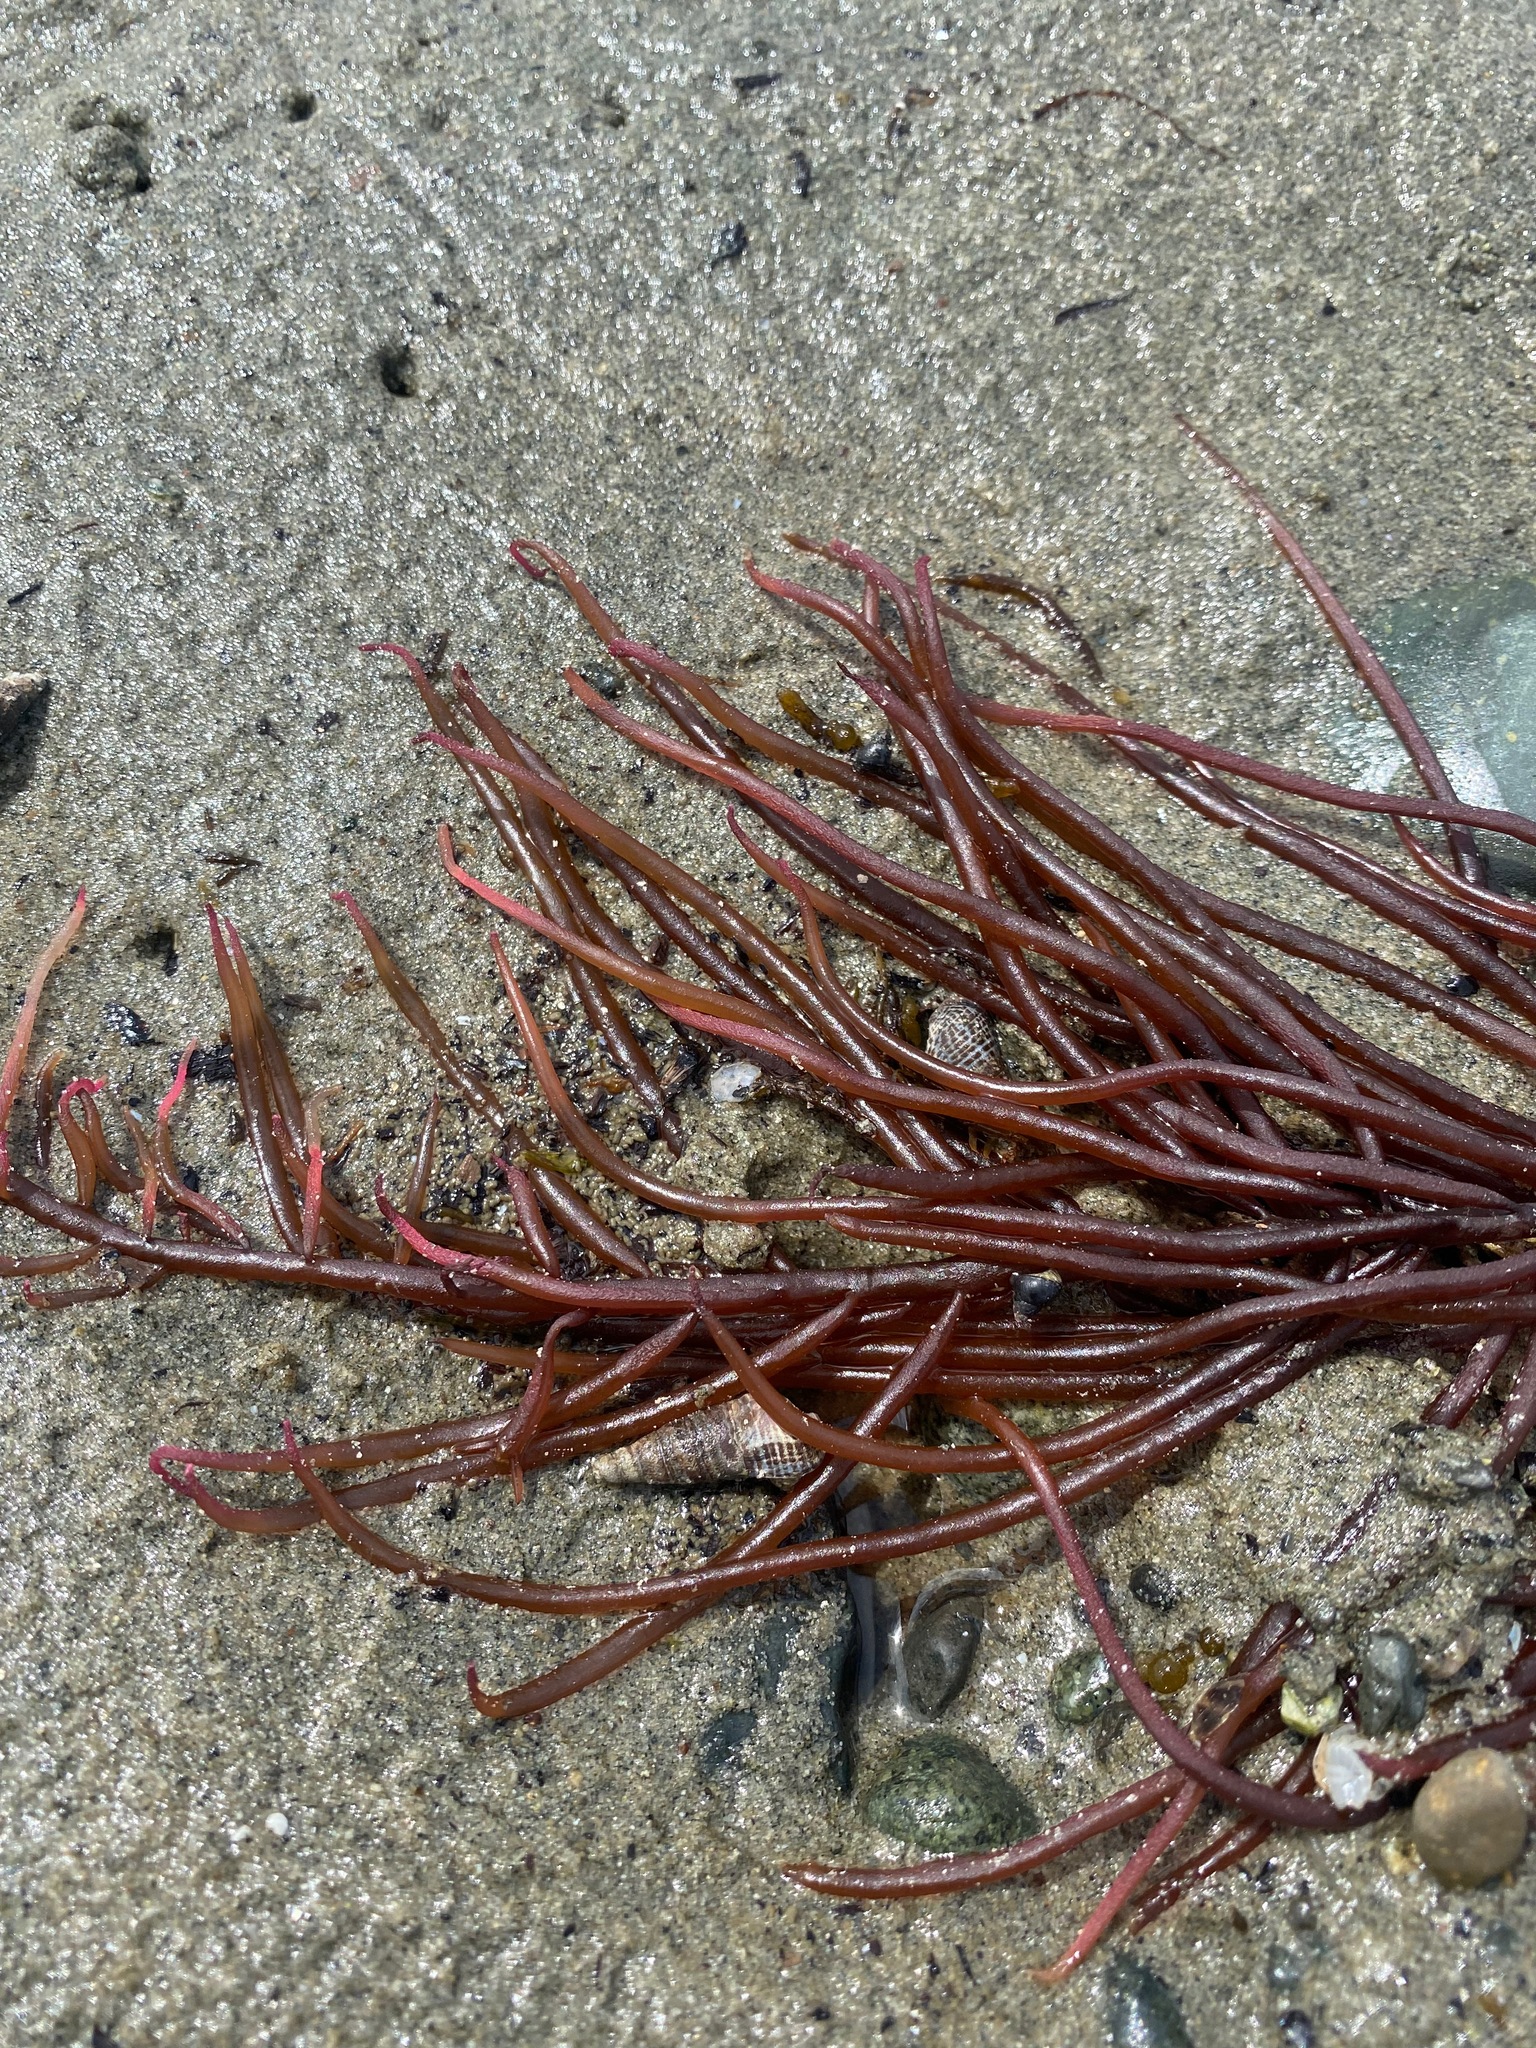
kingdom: Plantae
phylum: Rhodophyta
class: Florideophyceae
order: Gigartinales
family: Solieriaceae
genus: Sarcodiotheca
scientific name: Sarcodiotheca gaudichaudii
